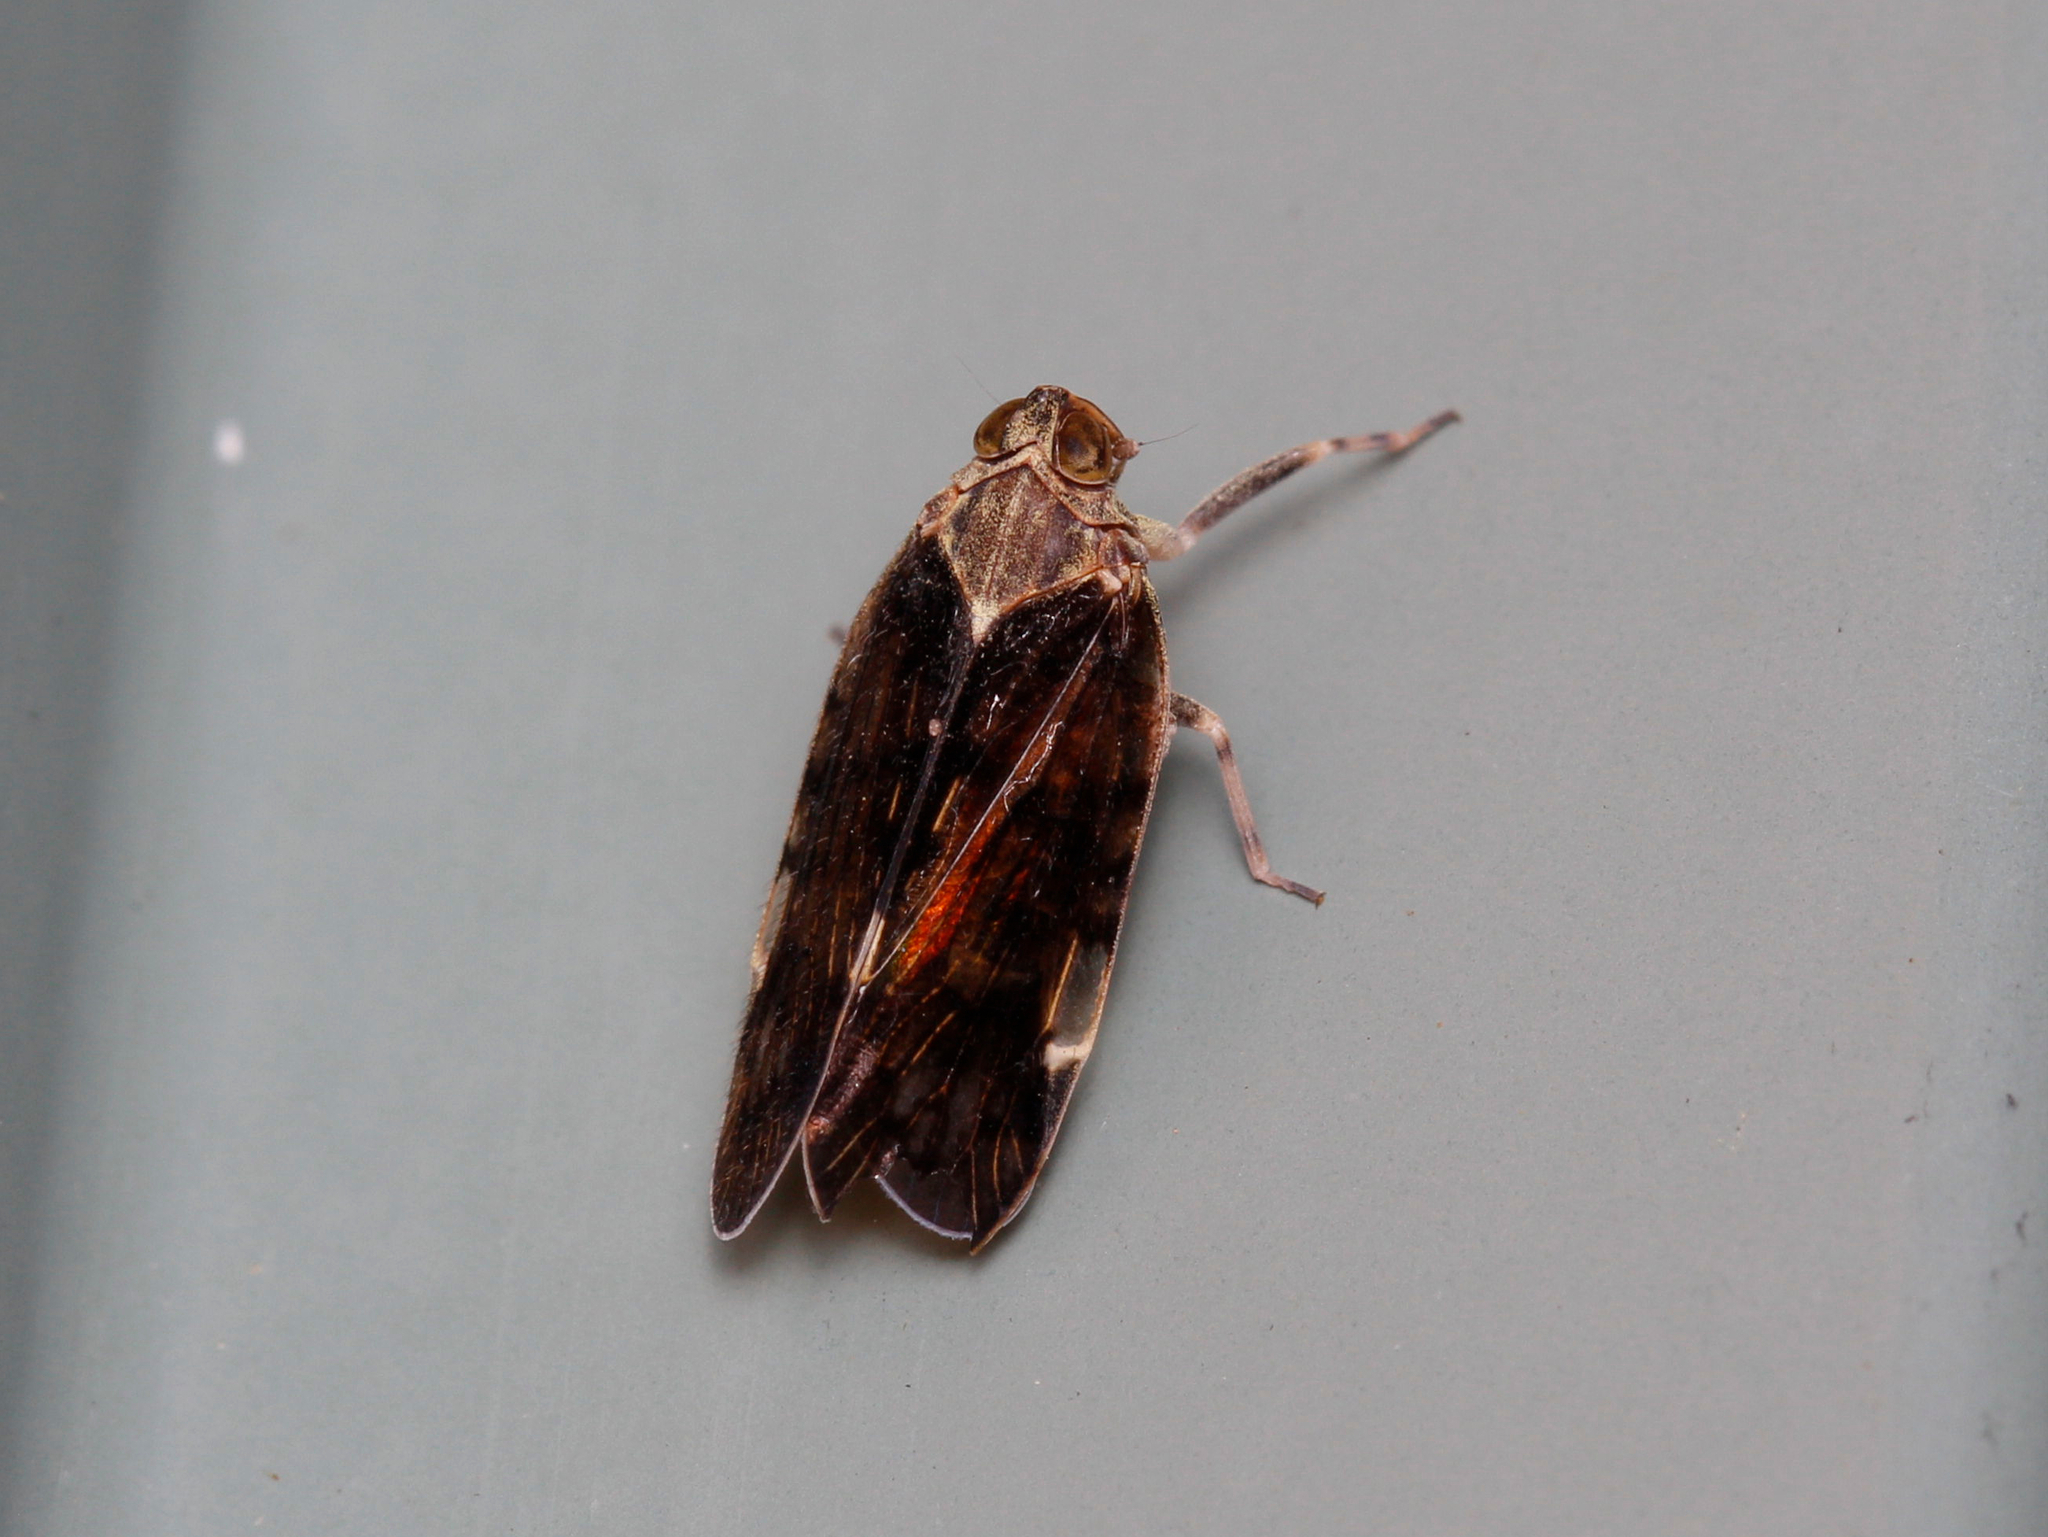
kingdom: Animalia
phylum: Arthropoda
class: Insecta
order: Hemiptera
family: Cixiidae
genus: Melanoliarus
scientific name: Melanoliarus placitus
